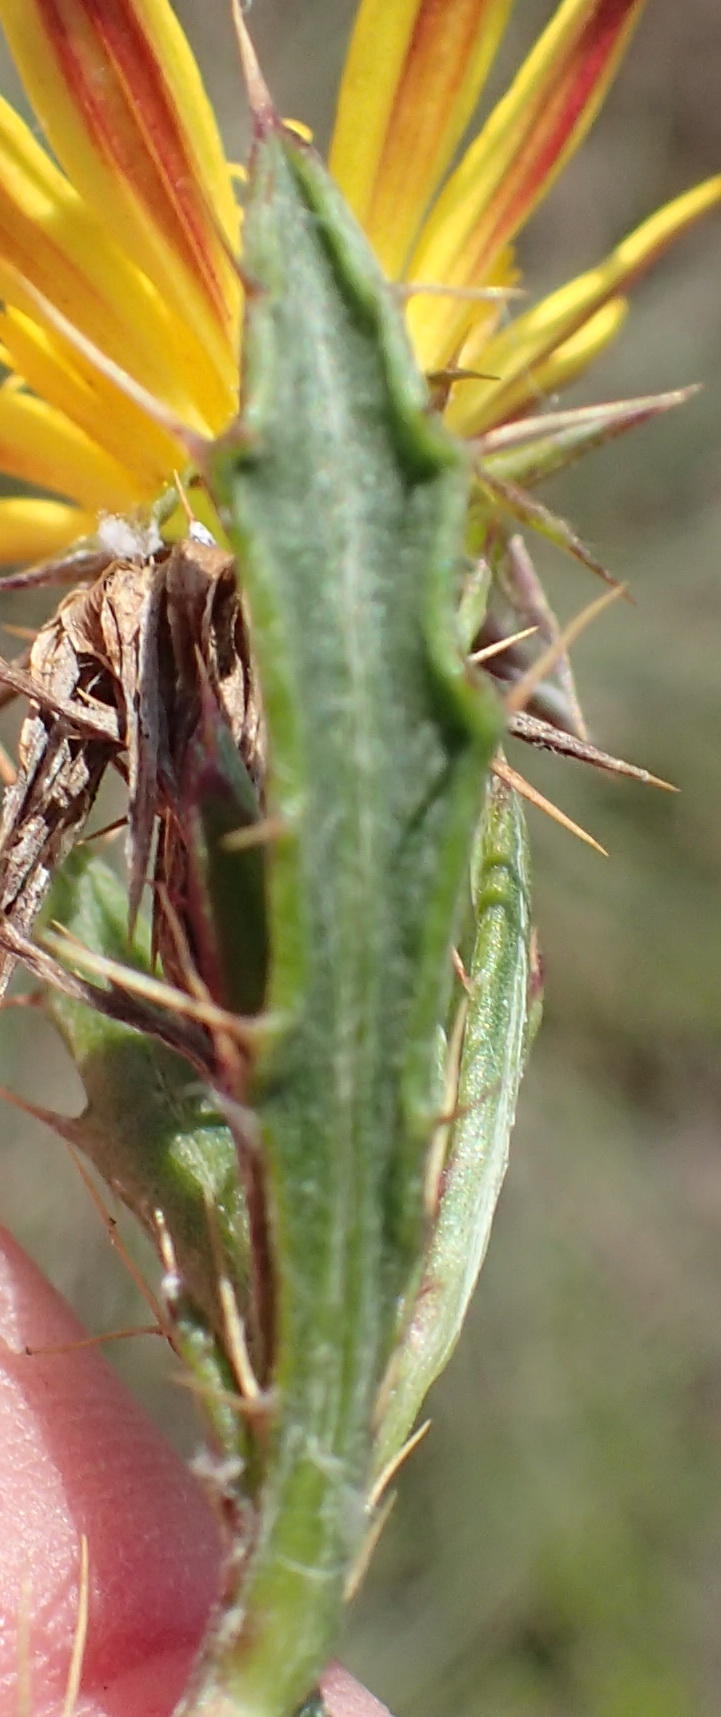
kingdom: Plantae
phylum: Tracheophyta
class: Magnoliopsida
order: Asterales
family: Asteraceae
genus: Cullumia
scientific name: Cullumia aculeata
